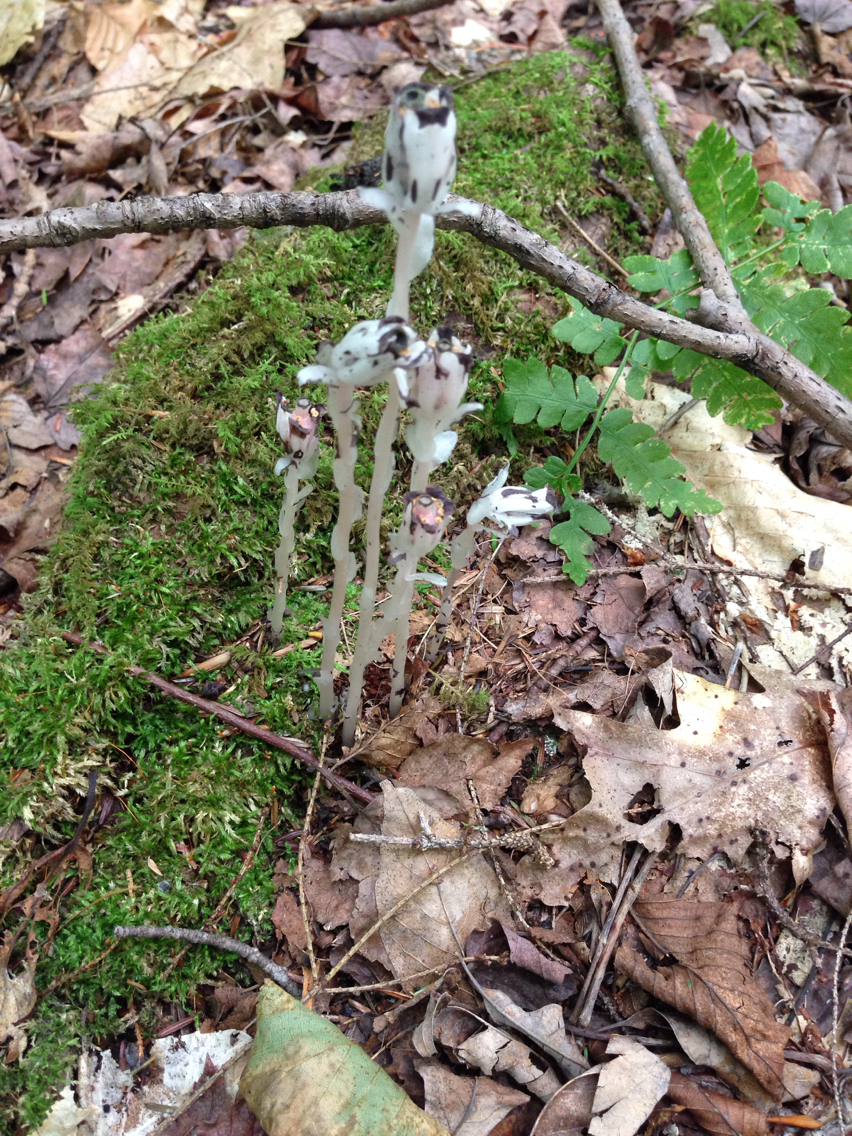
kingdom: Plantae
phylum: Tracheophyta
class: Magnoliopsida
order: Ericales
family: Ericaceae
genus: Monotropa
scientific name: Monotropa uniflora
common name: Convulsion root
